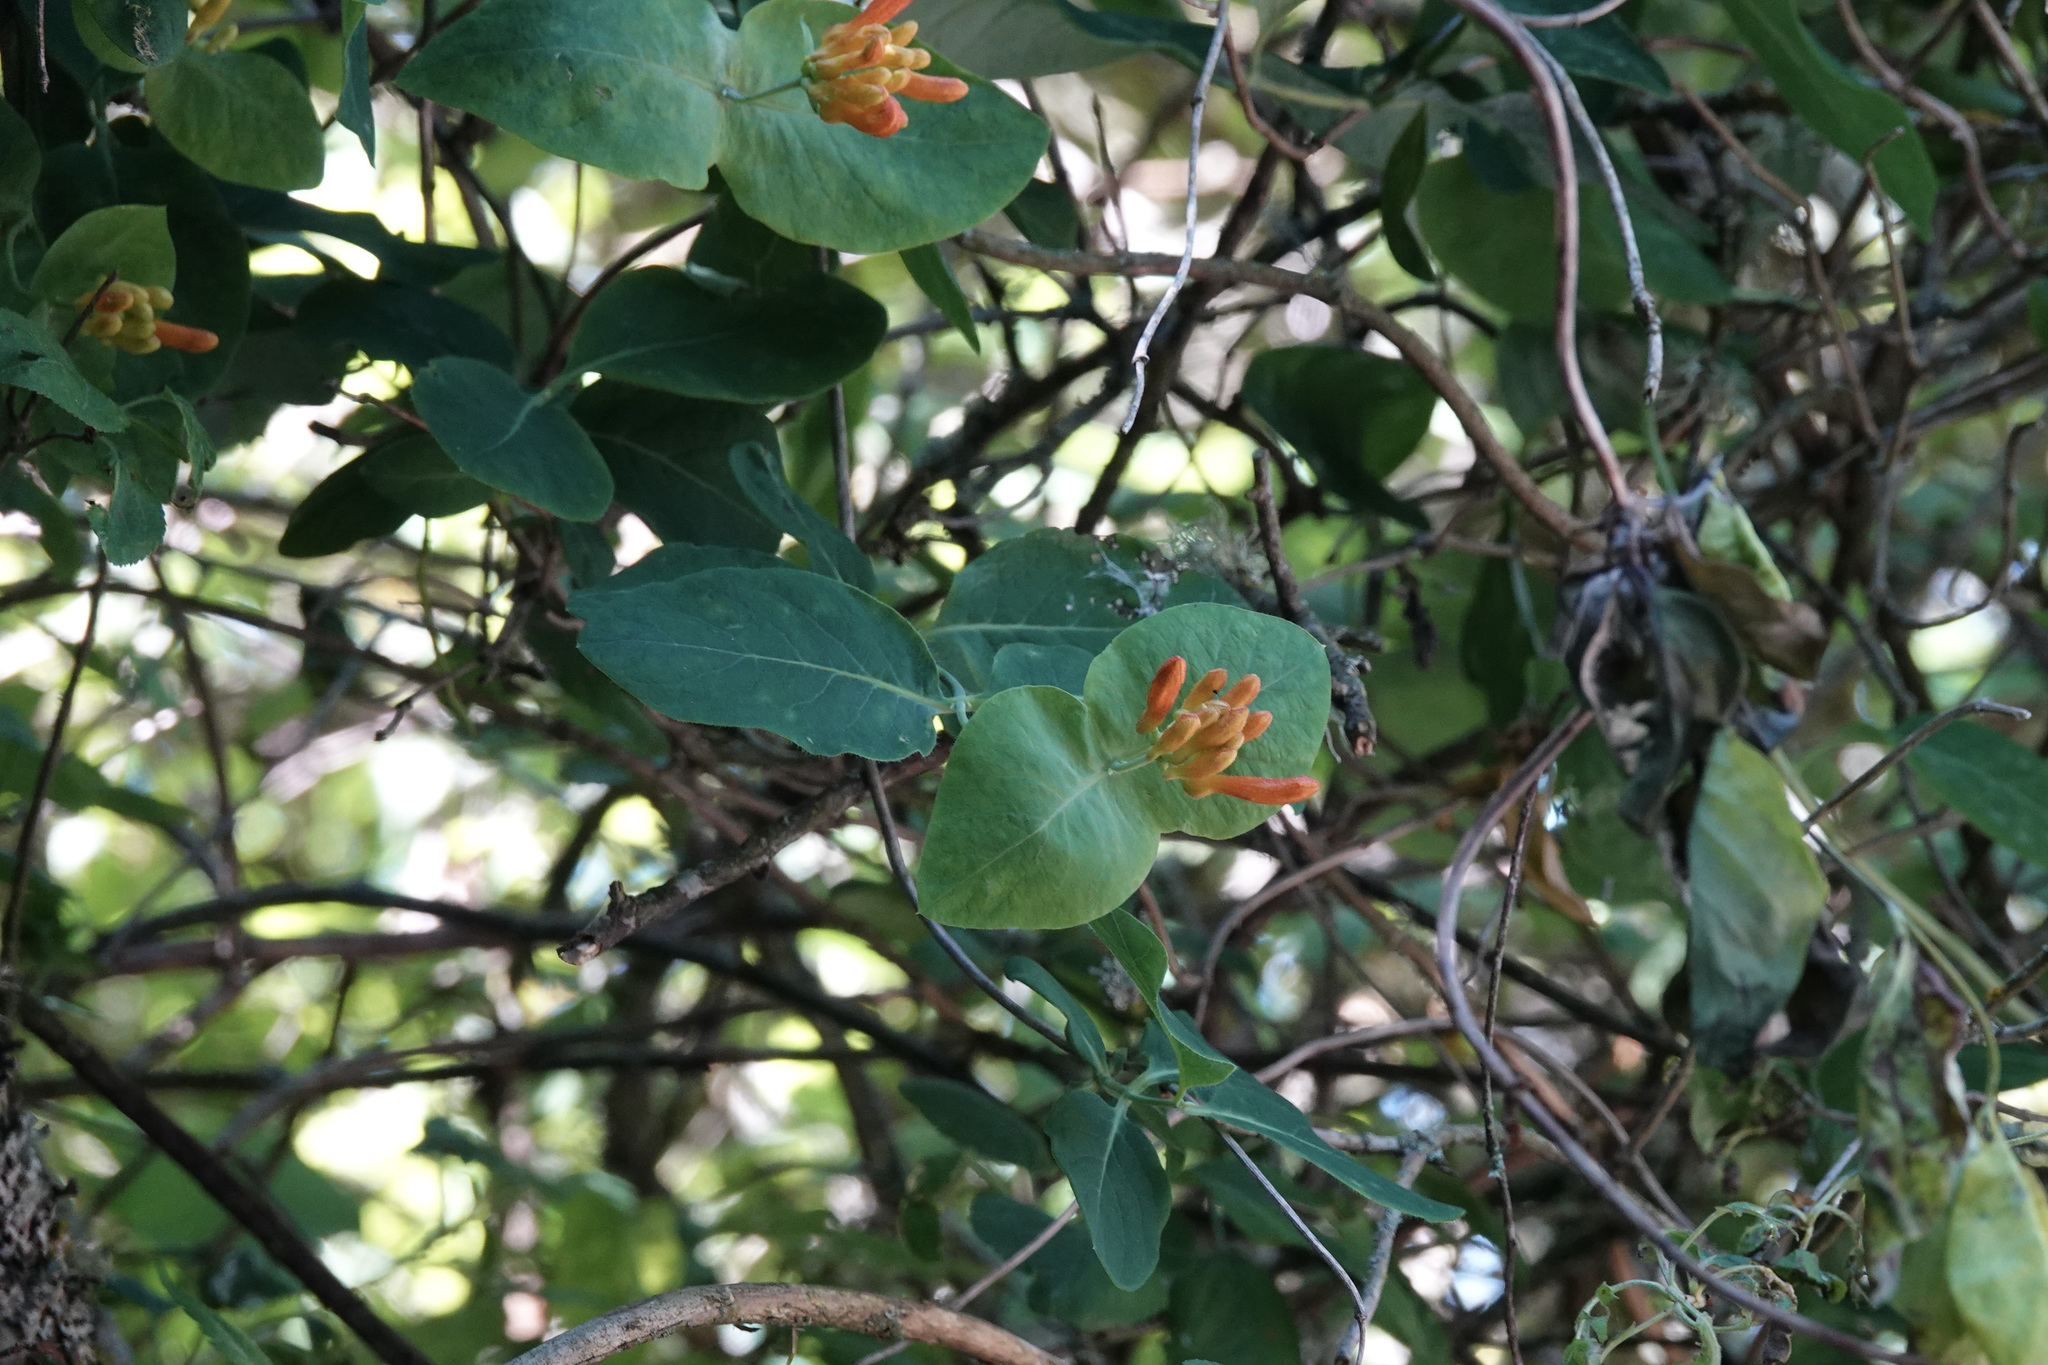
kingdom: Plantae
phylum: Tracheophyta
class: Magnoliopsida
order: Dipsacales
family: Caprifoliaceae
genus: Lonicera
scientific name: Lonicera ciliosa
